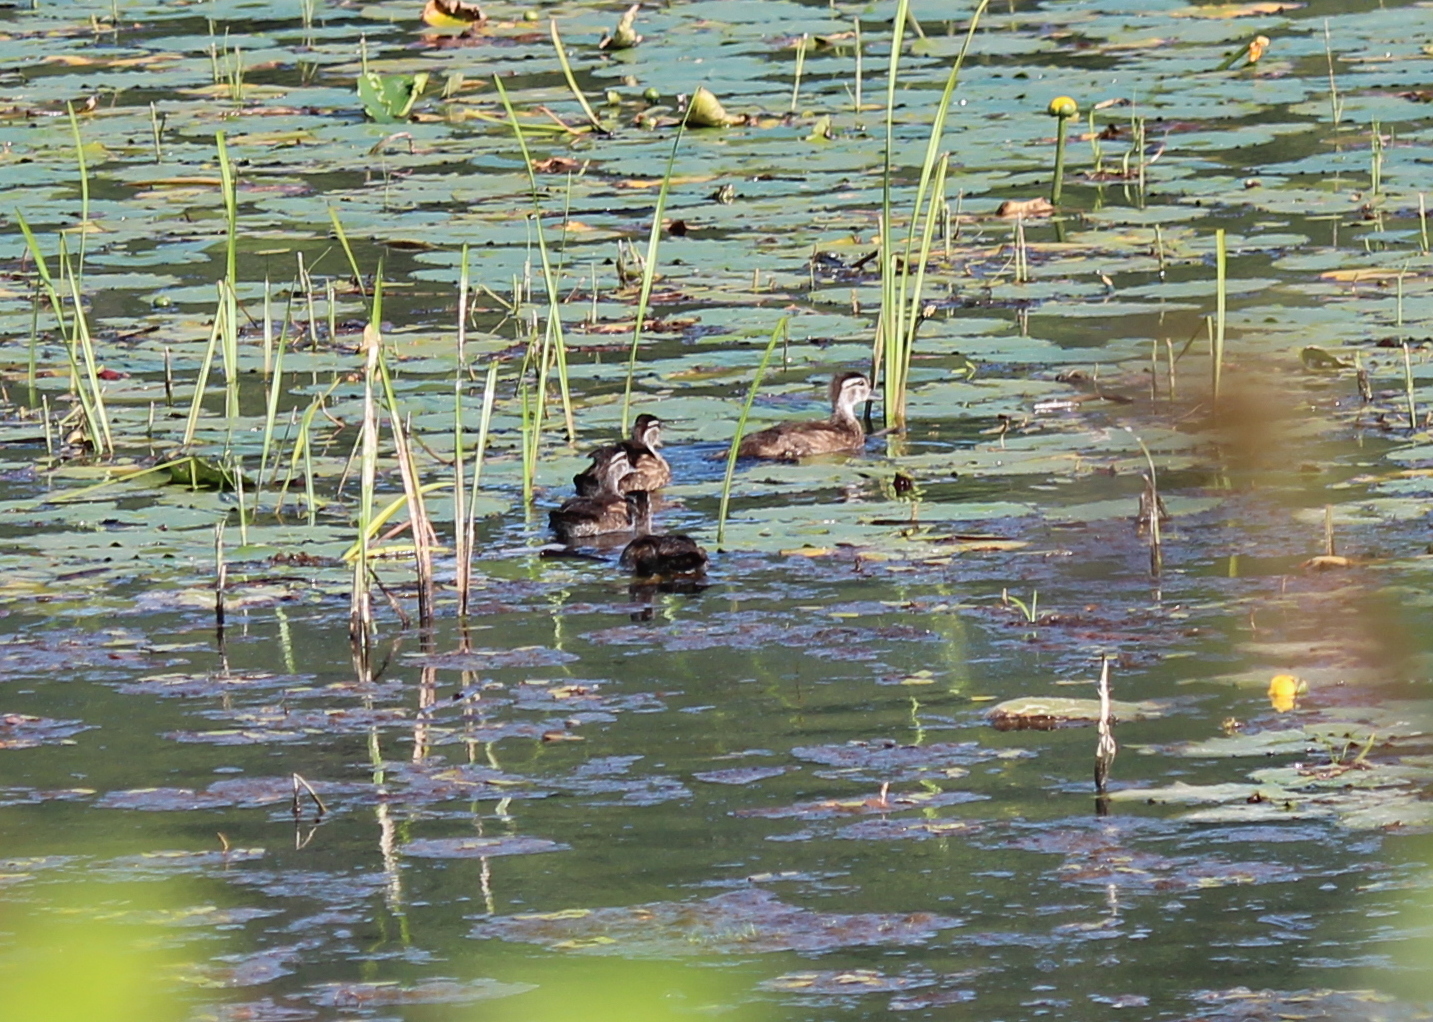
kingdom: Animalia
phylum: Chordata
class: Aves
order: Anseriformes
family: Anatidae
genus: Aix
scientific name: Aix sponsa
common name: Wood duck
